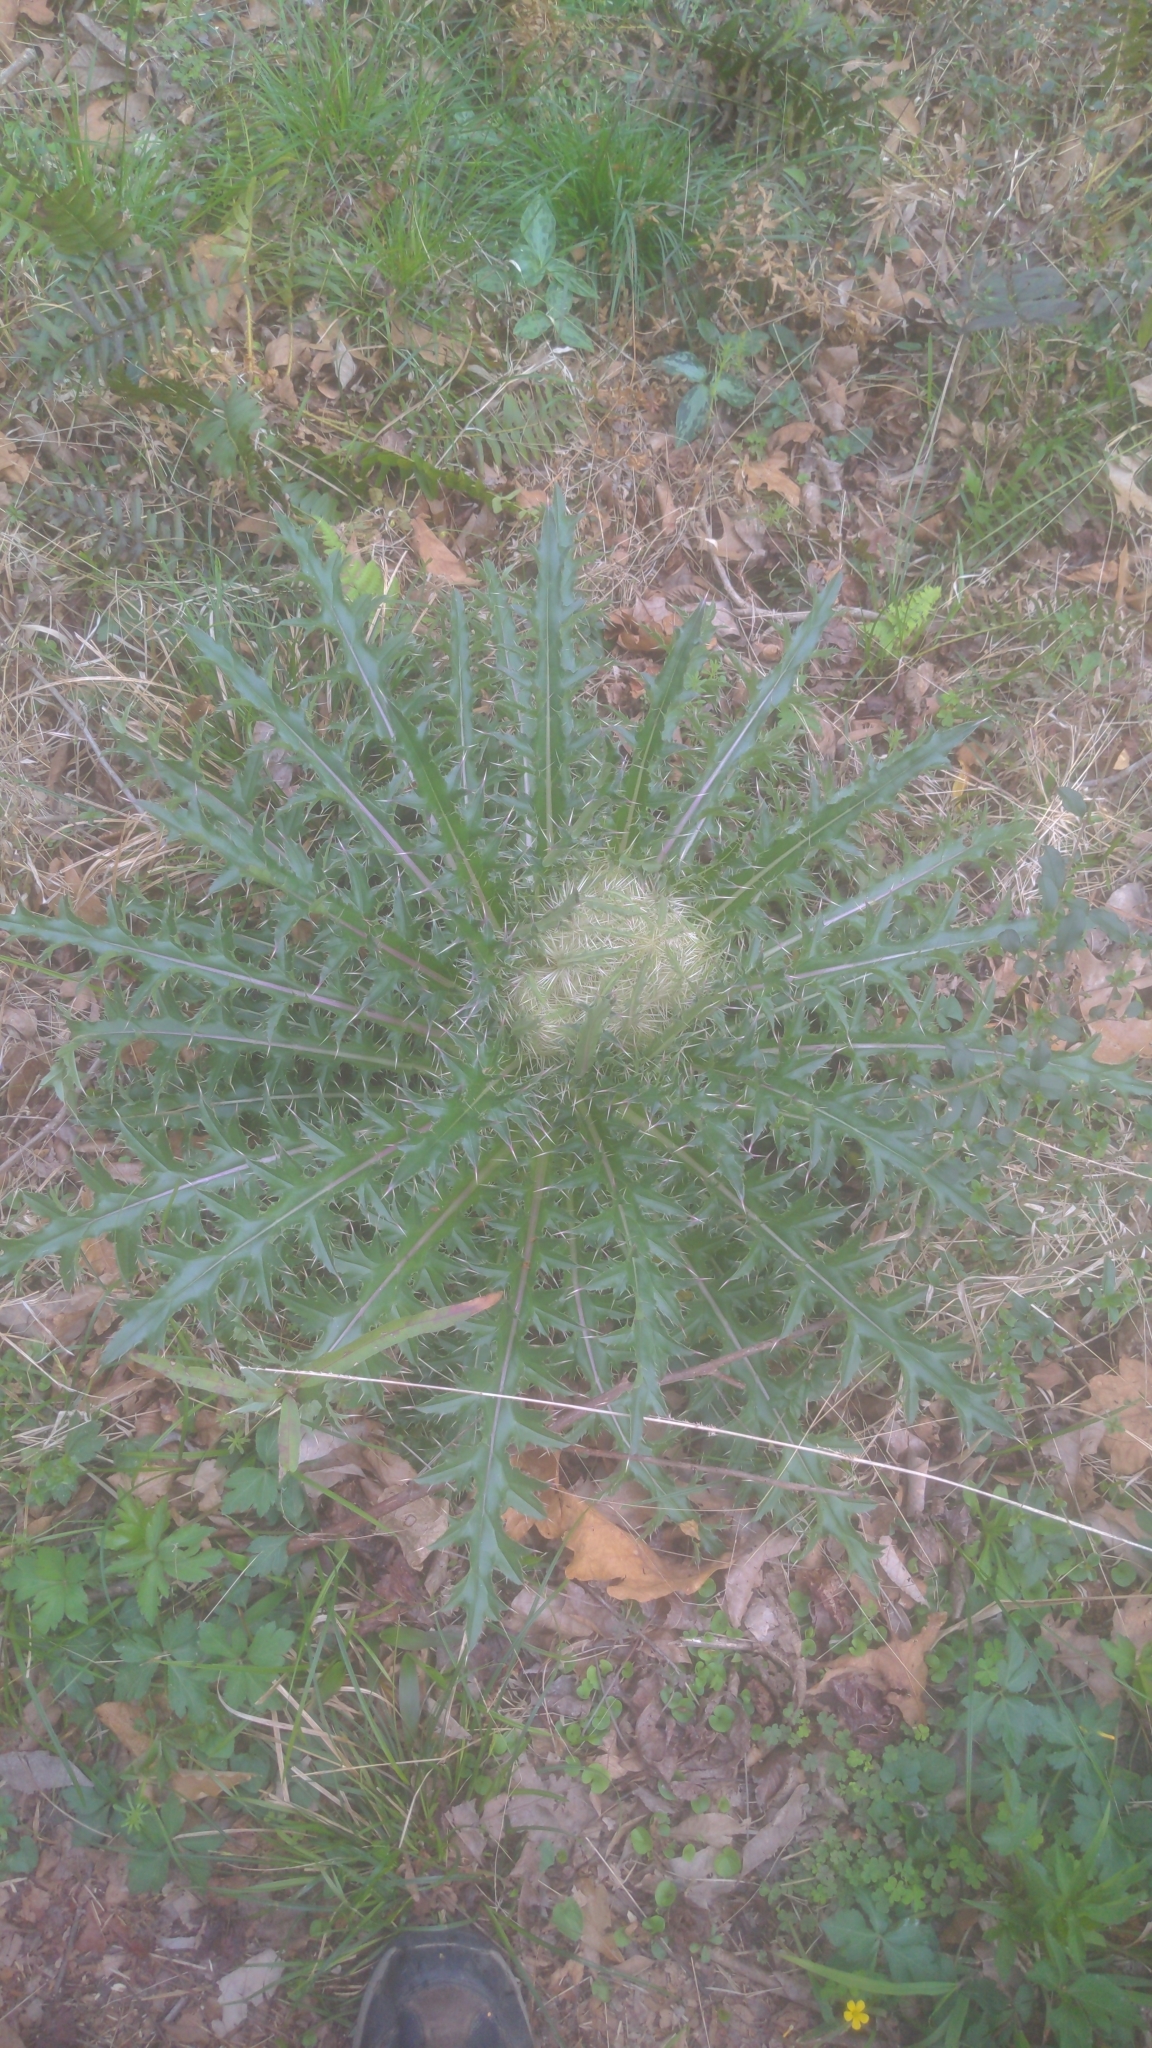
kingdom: Plantae
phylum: Tracheophyta
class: Magnoliopsida
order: Asterales
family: Asteraceae
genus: Cirsium
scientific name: Cirsium horridulum
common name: Bristly thistle
